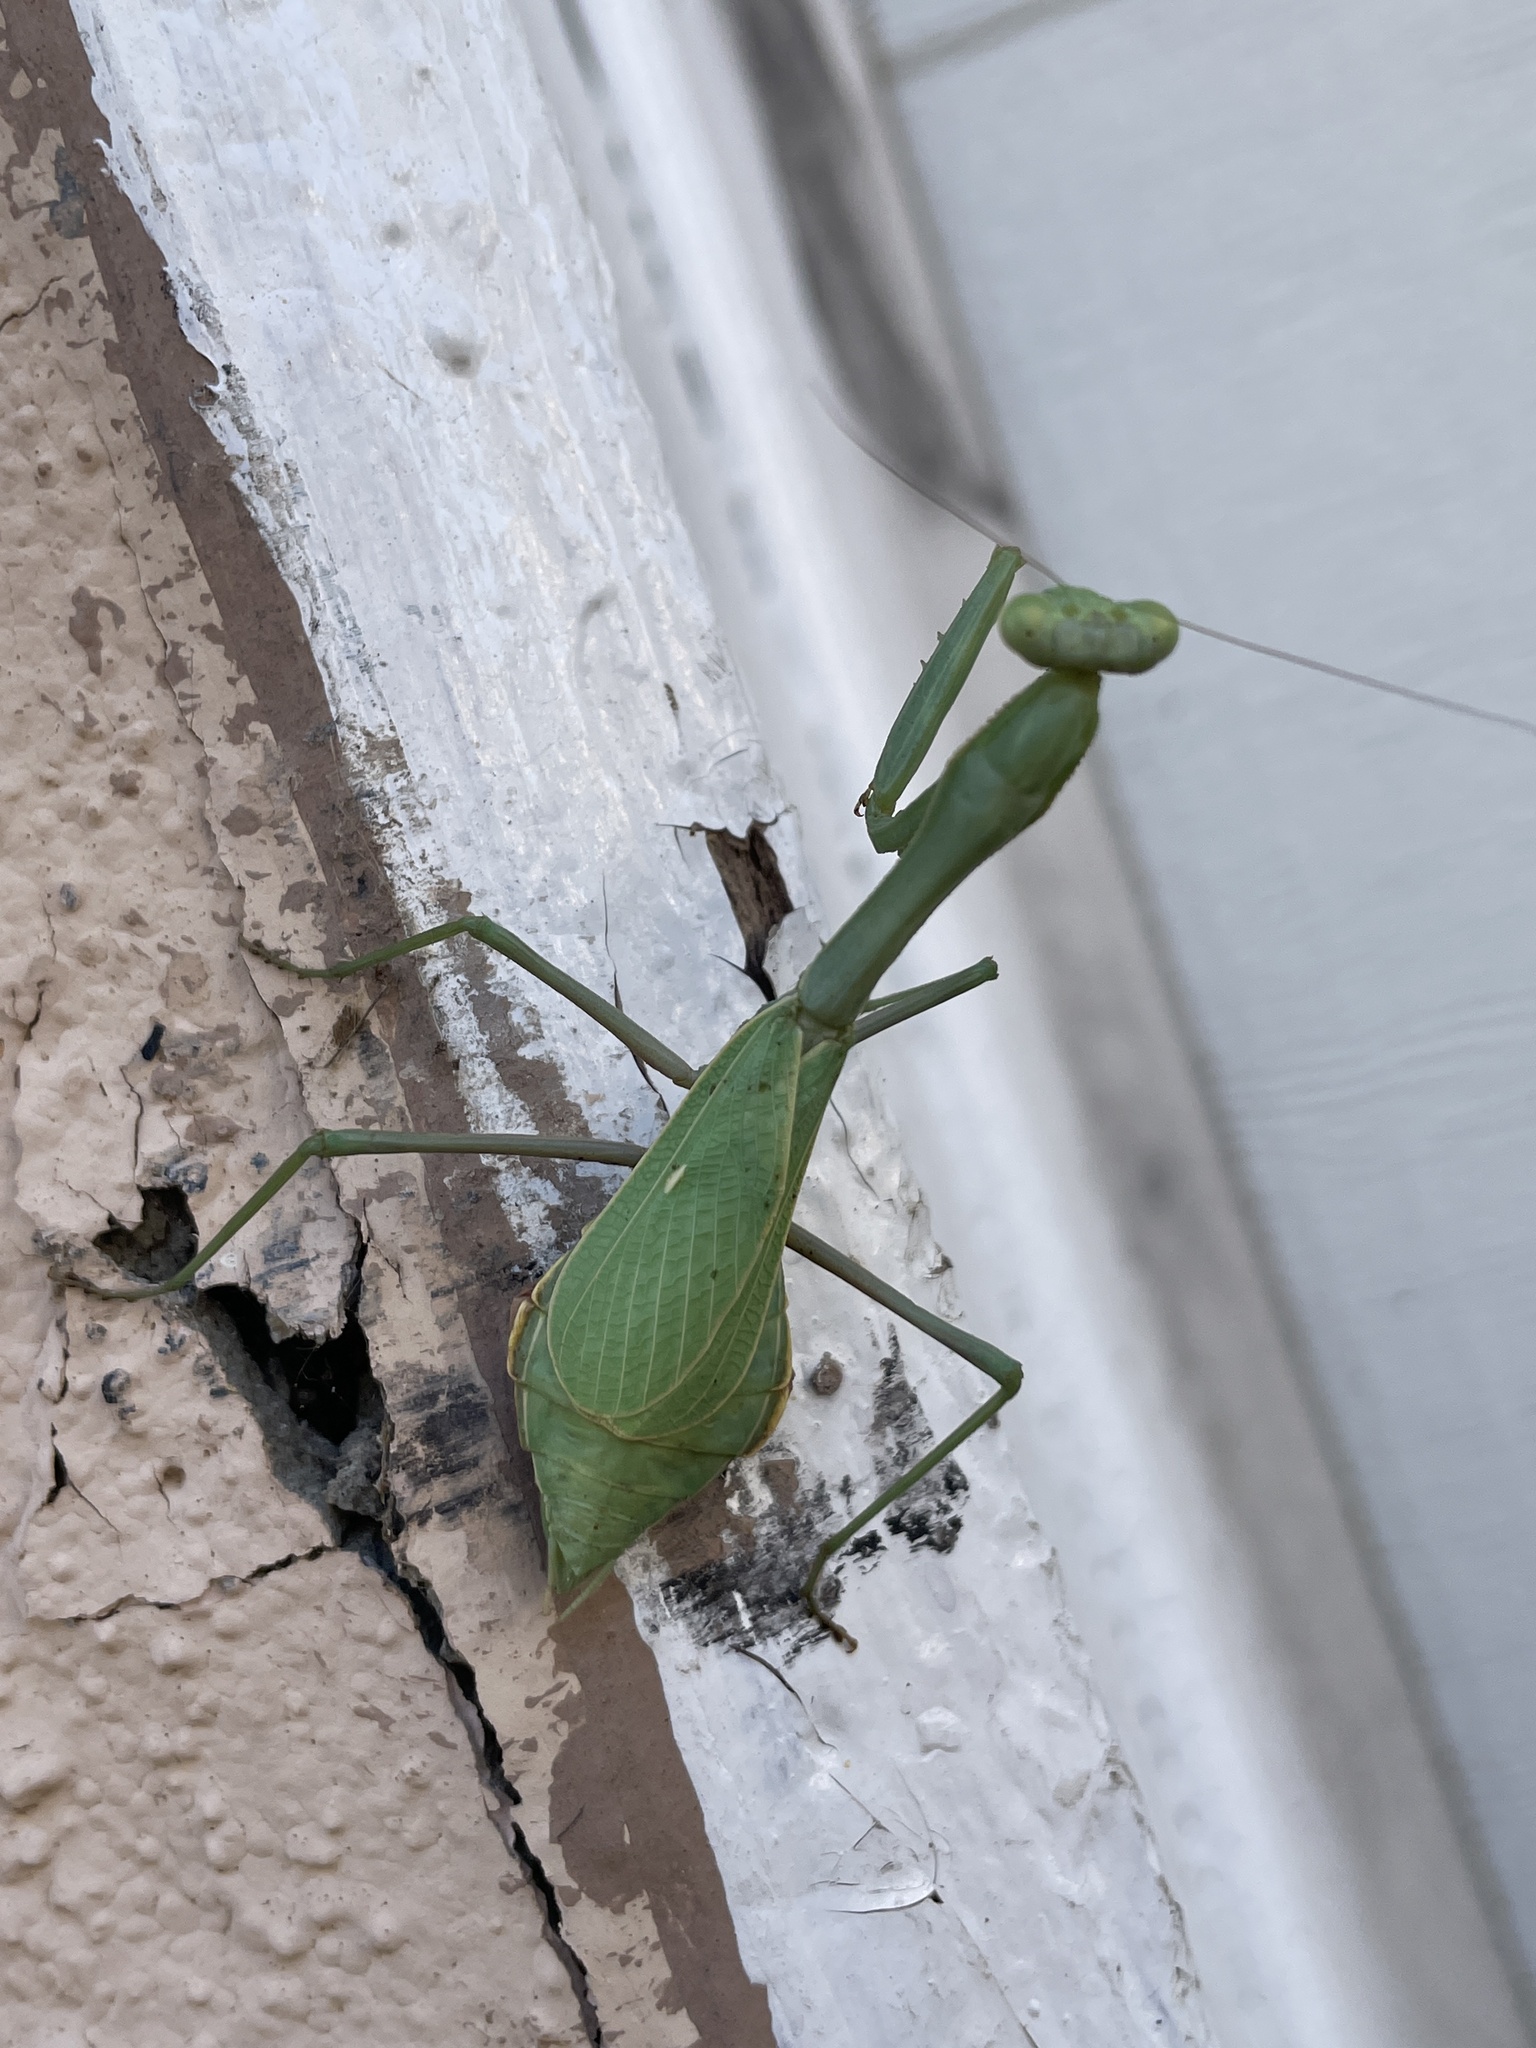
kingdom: Animalia
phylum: Arthropoda
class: Insecta
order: Mantodea
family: Mantidae
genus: Stagmomantis
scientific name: Stagmomantis limbata
